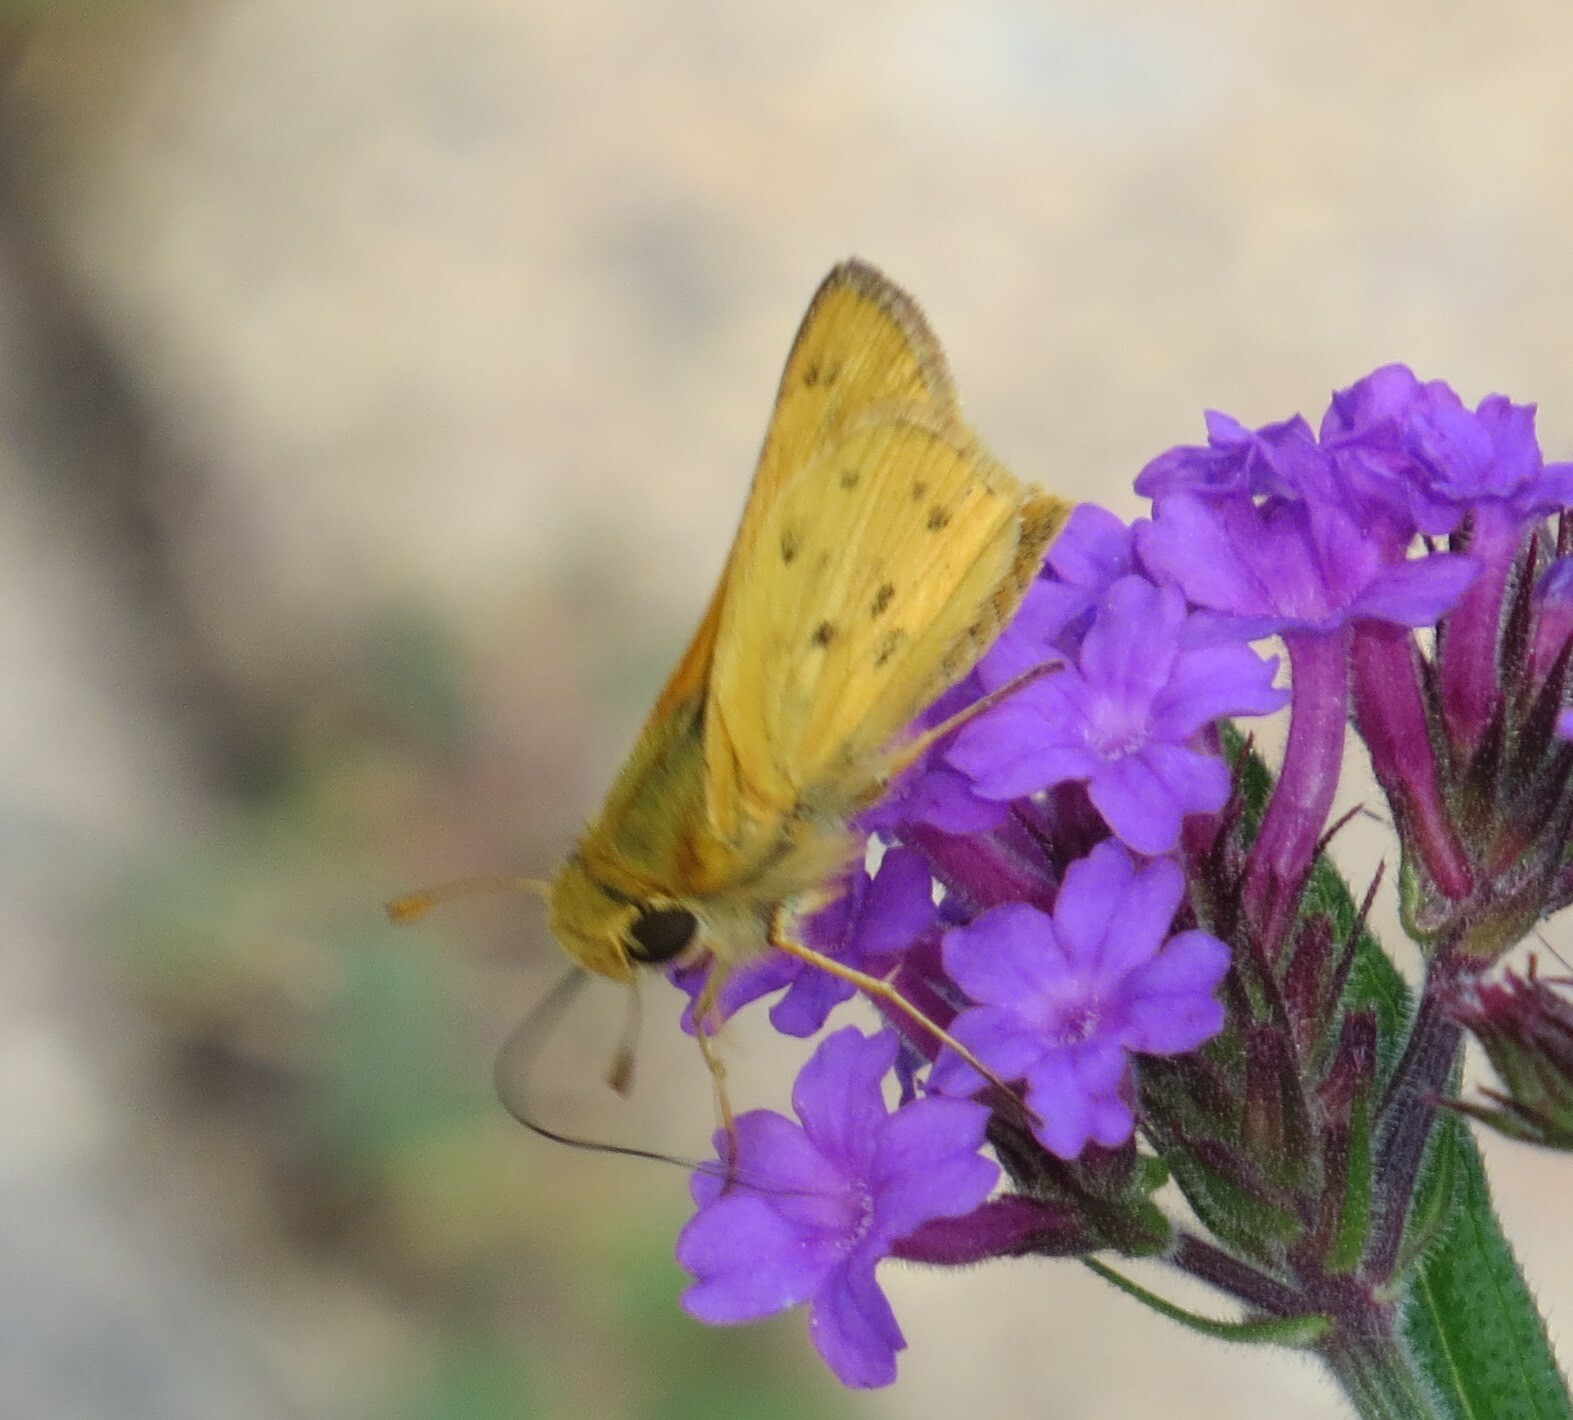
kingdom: Animalia
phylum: Arthropoda
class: Insecta
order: Lepidoptera
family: Hesperiidae
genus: Hylephila
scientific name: Hylephila phyleus
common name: Fiery skipper
